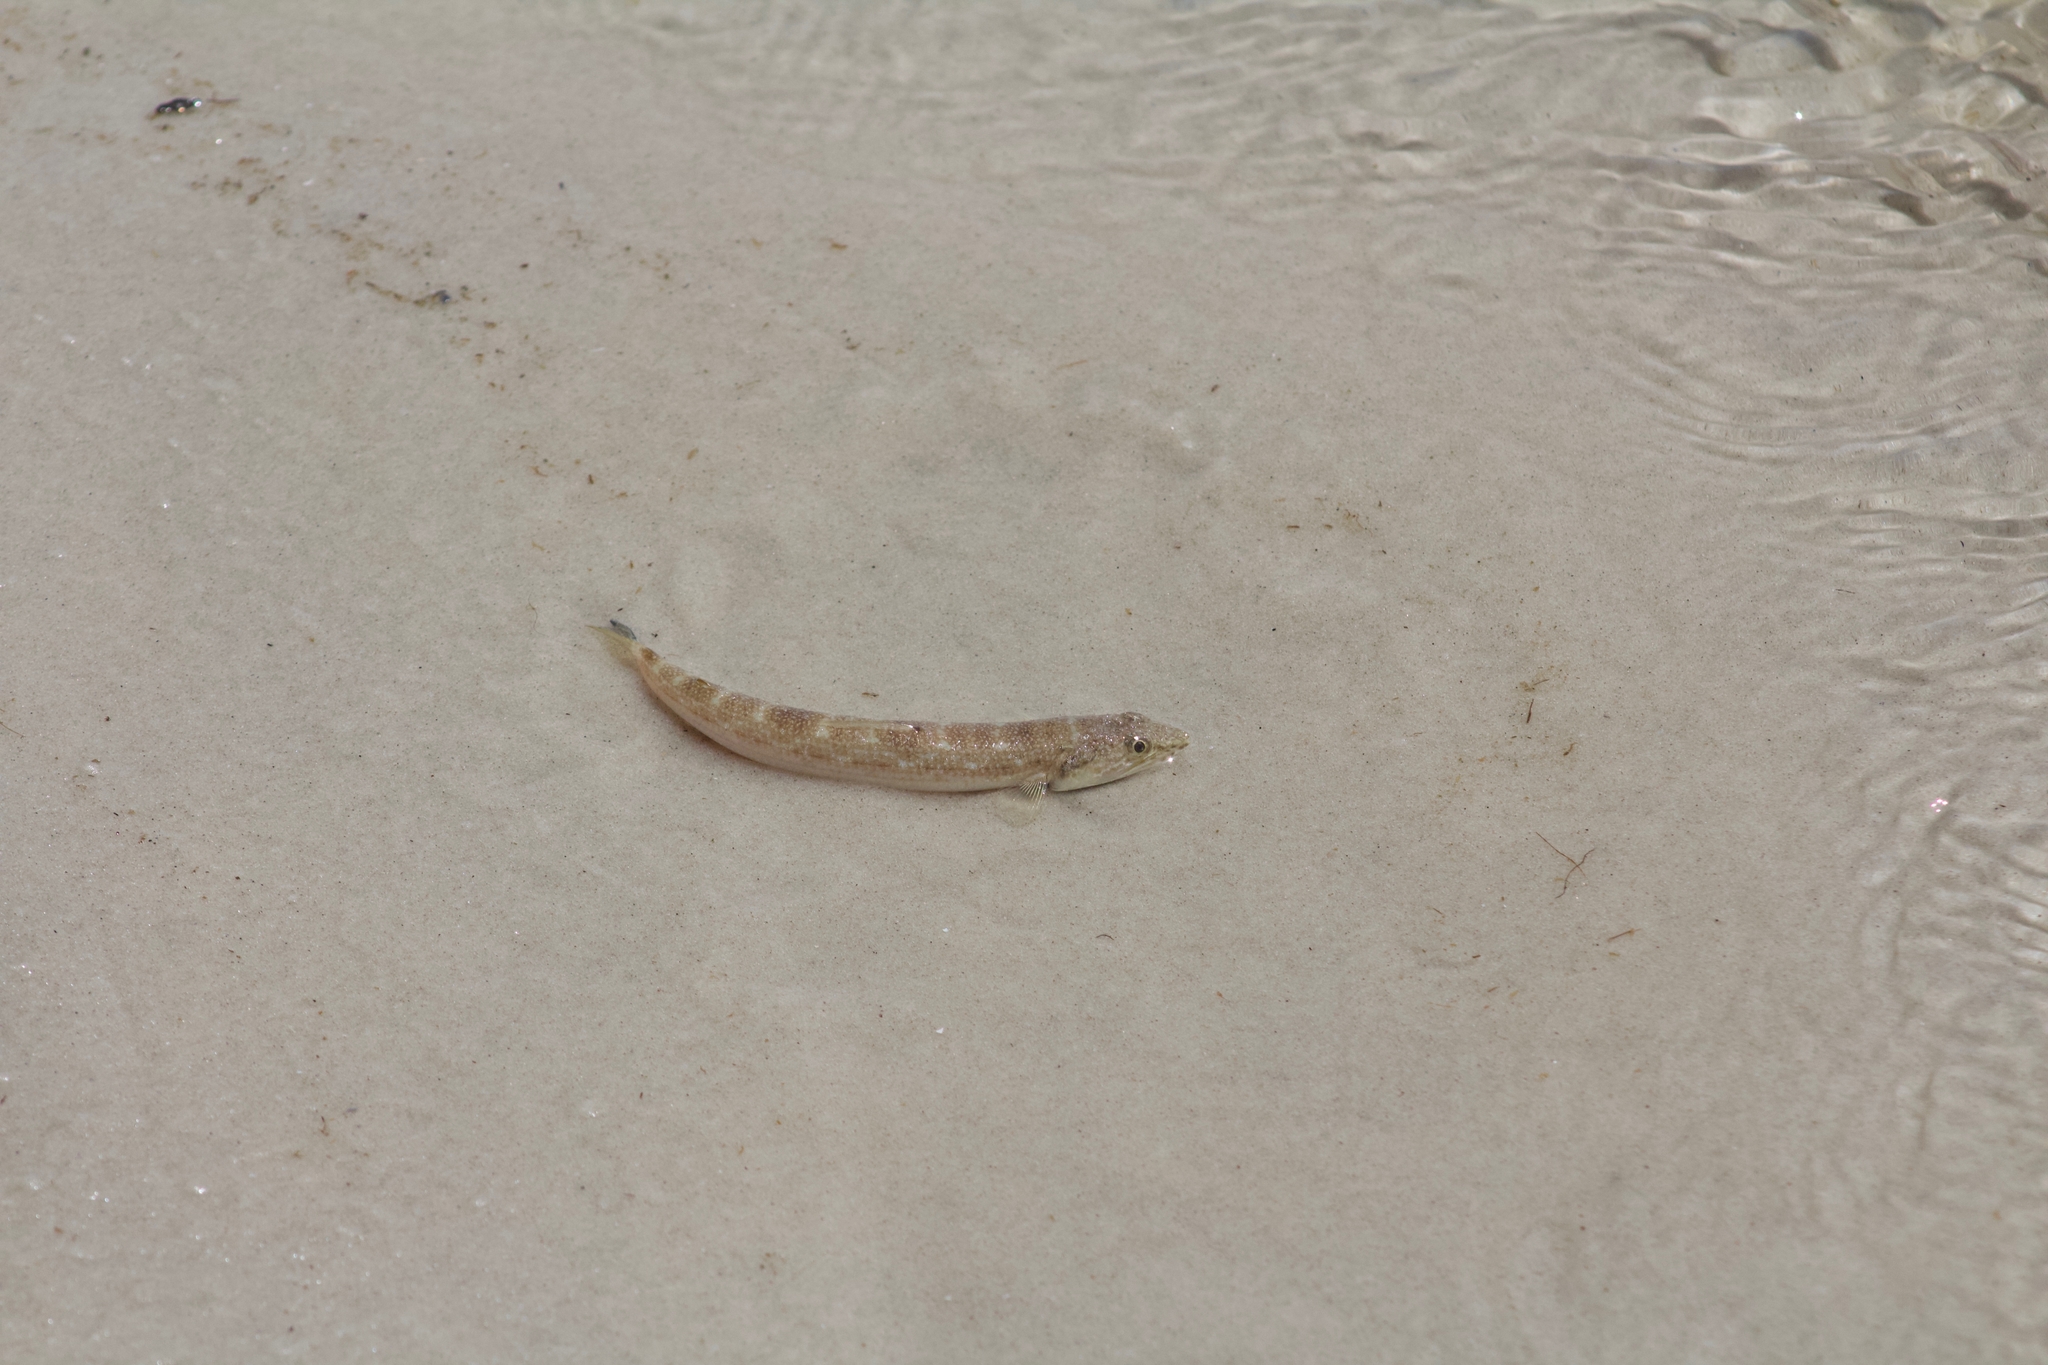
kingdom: Animalia
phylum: Chordata
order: Aulopiformes
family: Synodontidae
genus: Synodus
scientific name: Synodus foetens
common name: Inshore lizardfish
